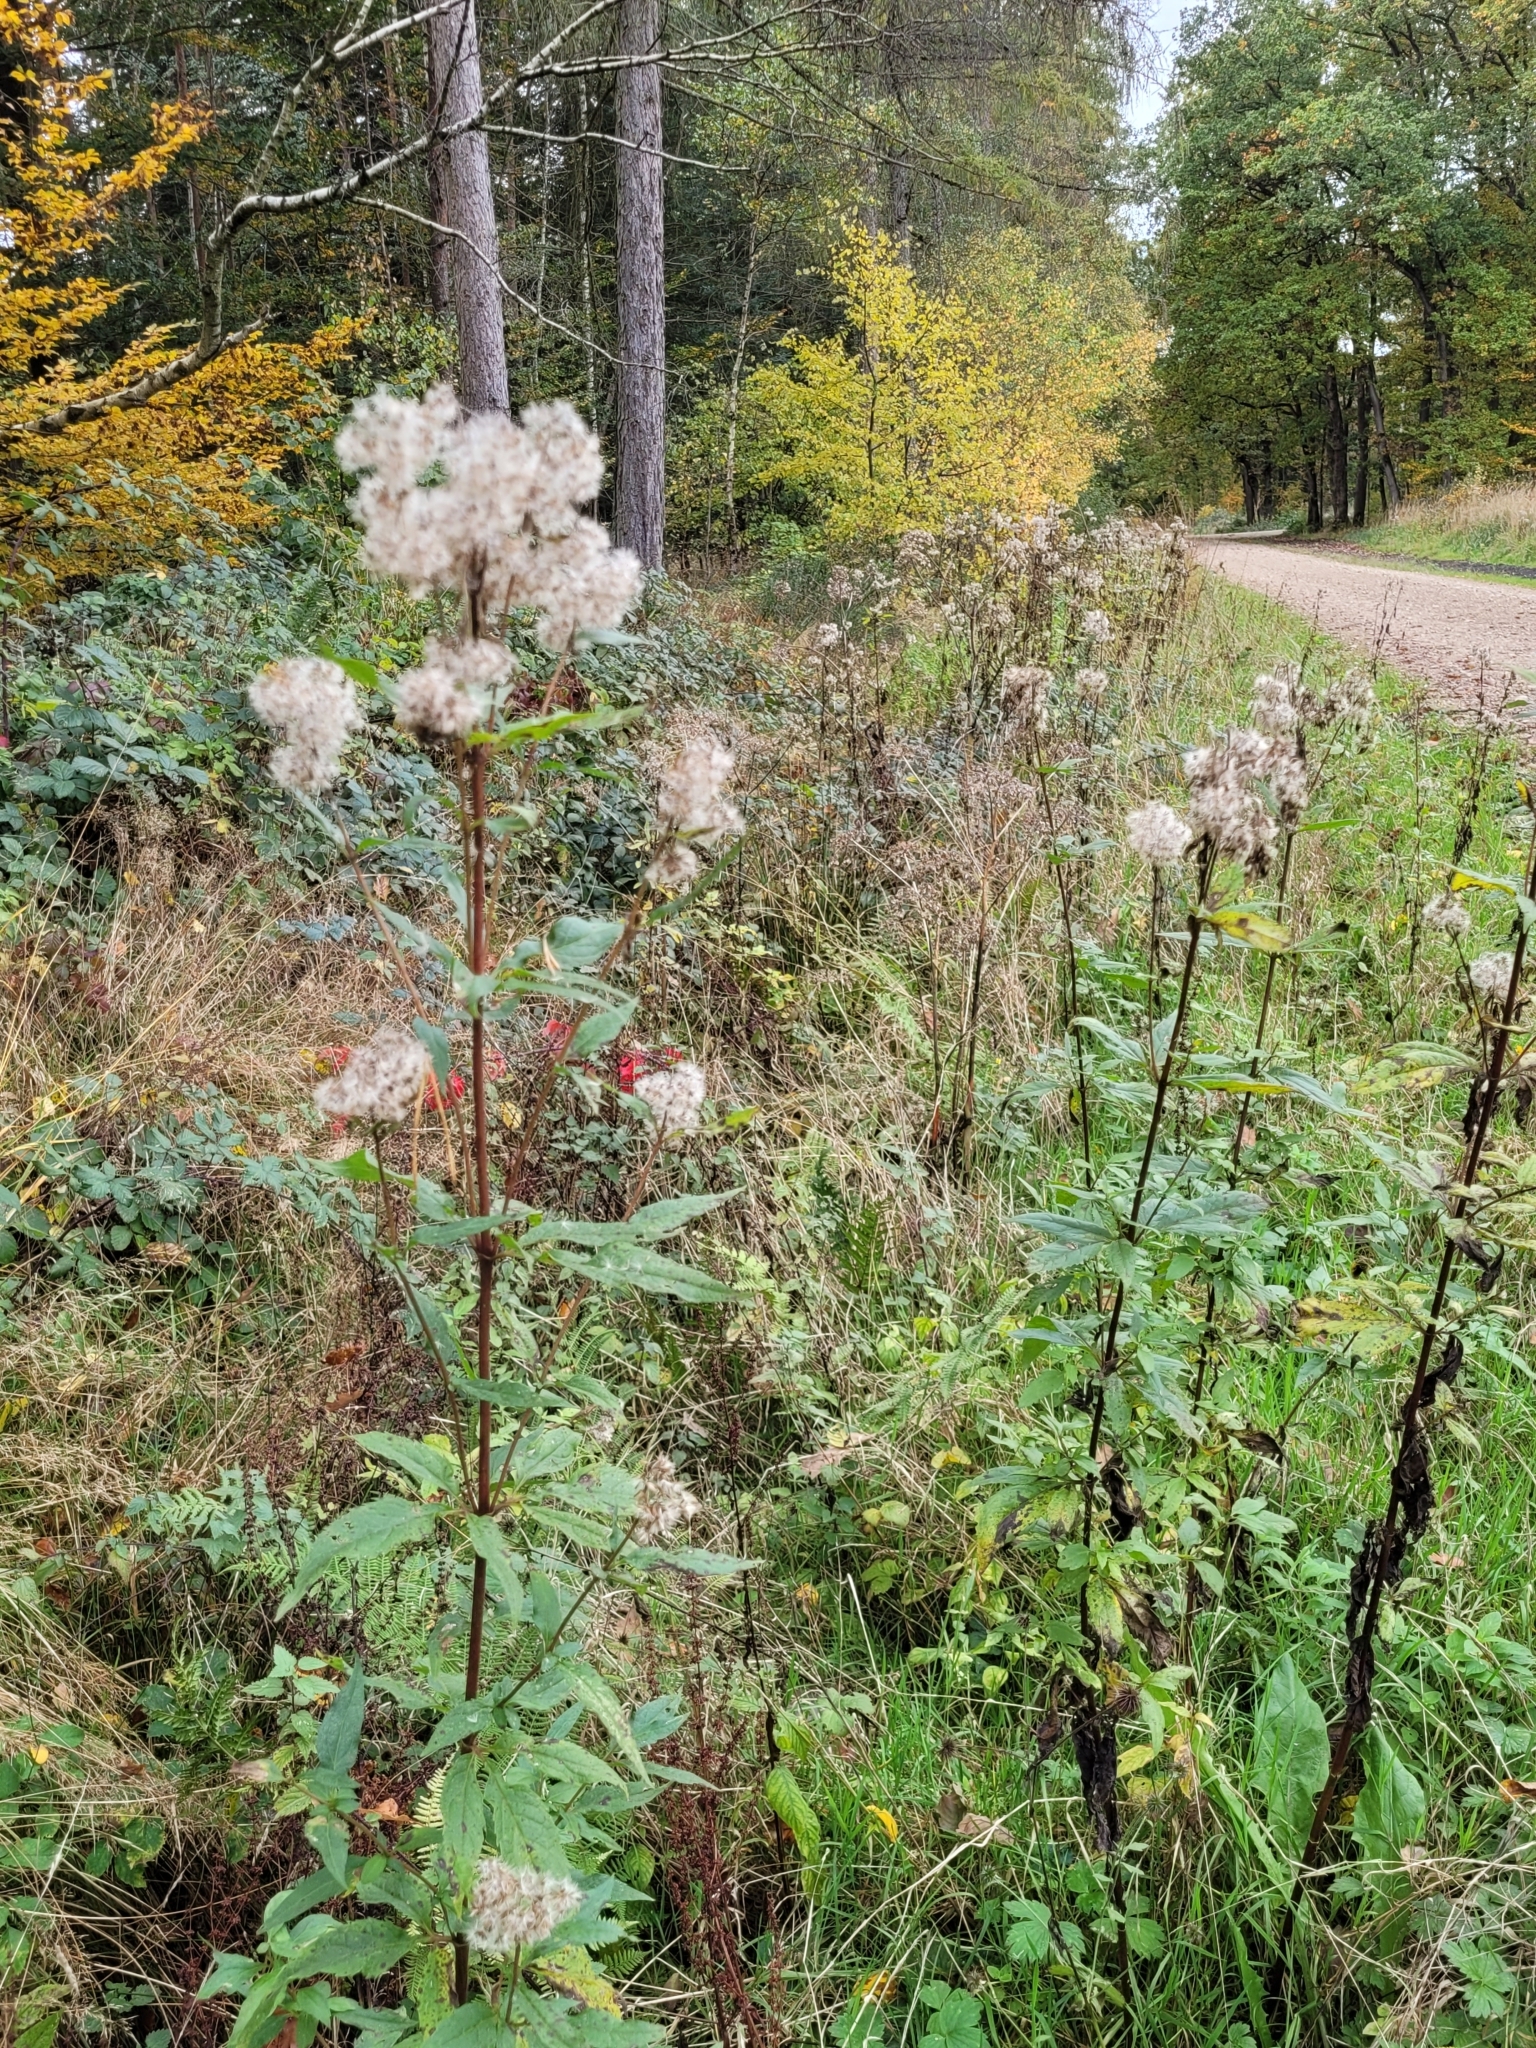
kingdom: Plantae
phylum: Tracheophyta
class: Magnoliopsida
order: Asterales
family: Asteraceae
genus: Eupatorium
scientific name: Eupatorium cannabinum
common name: Hemp-agrimony
